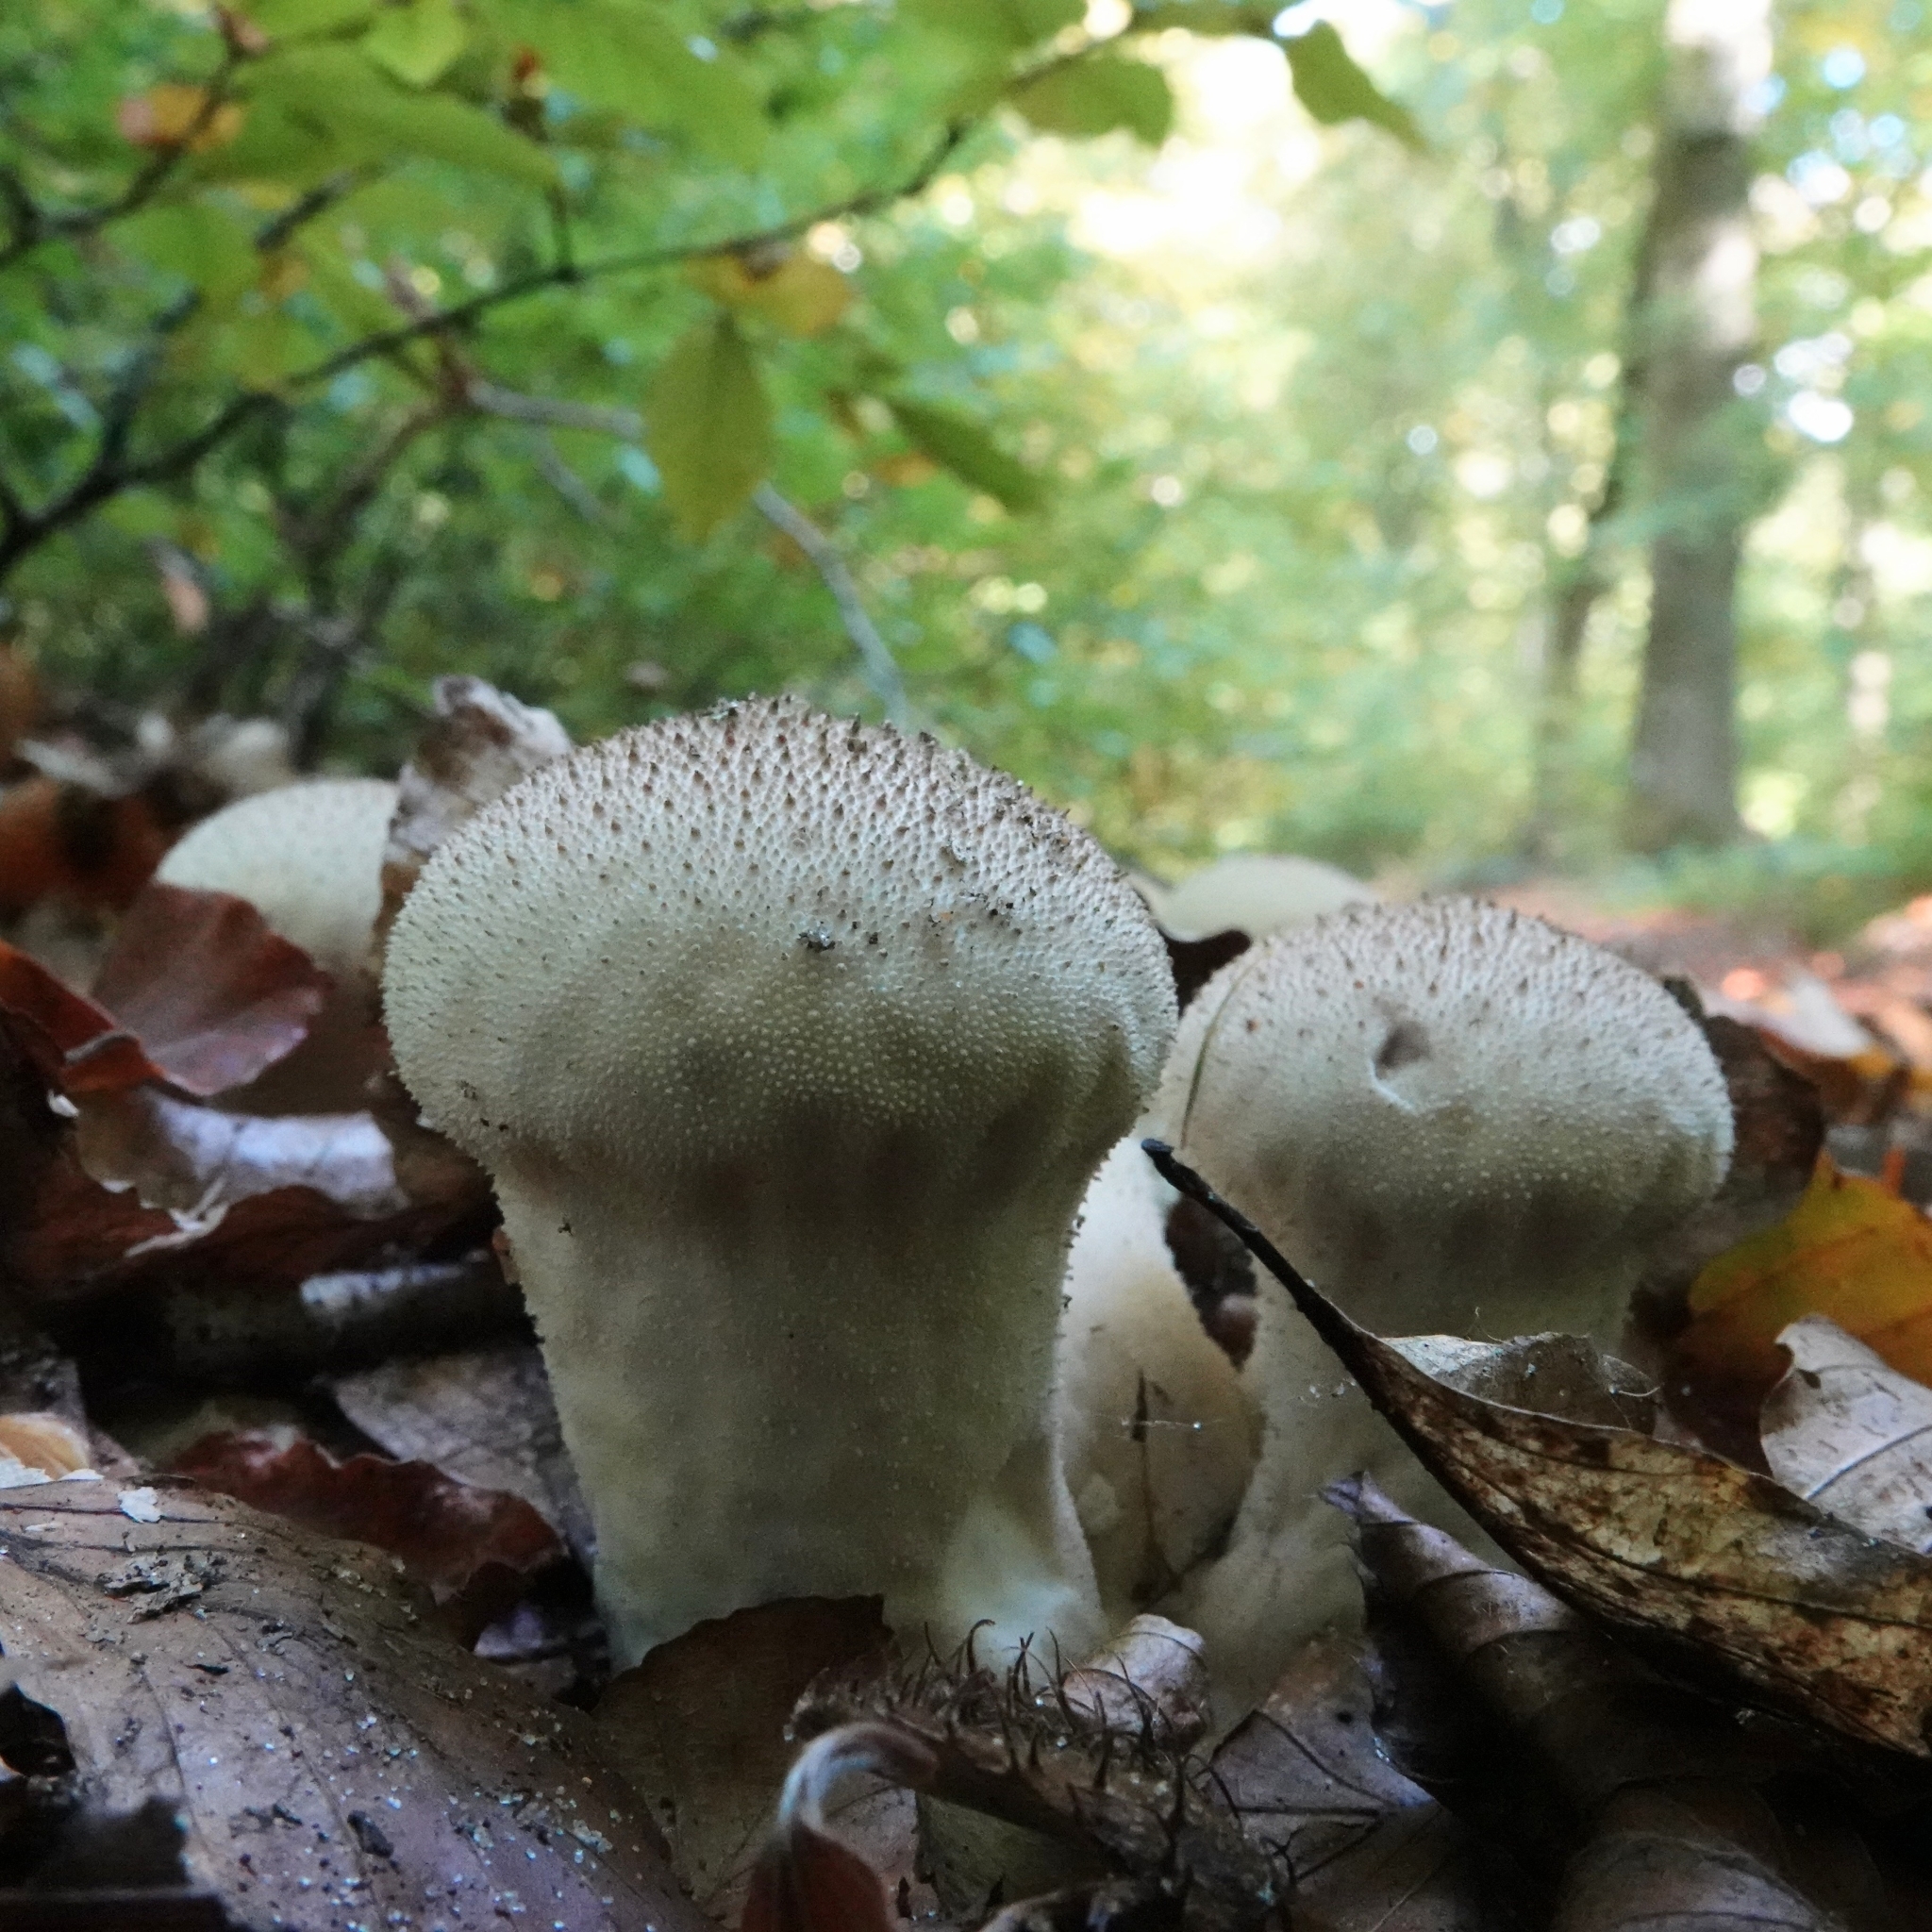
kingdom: Fungi
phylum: Basidiomycota
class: Agaricomycetes
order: Agaricales
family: Lycoperdaceae
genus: Lycoperdon
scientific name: Lycoperdon perlatum
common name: Common puffball
